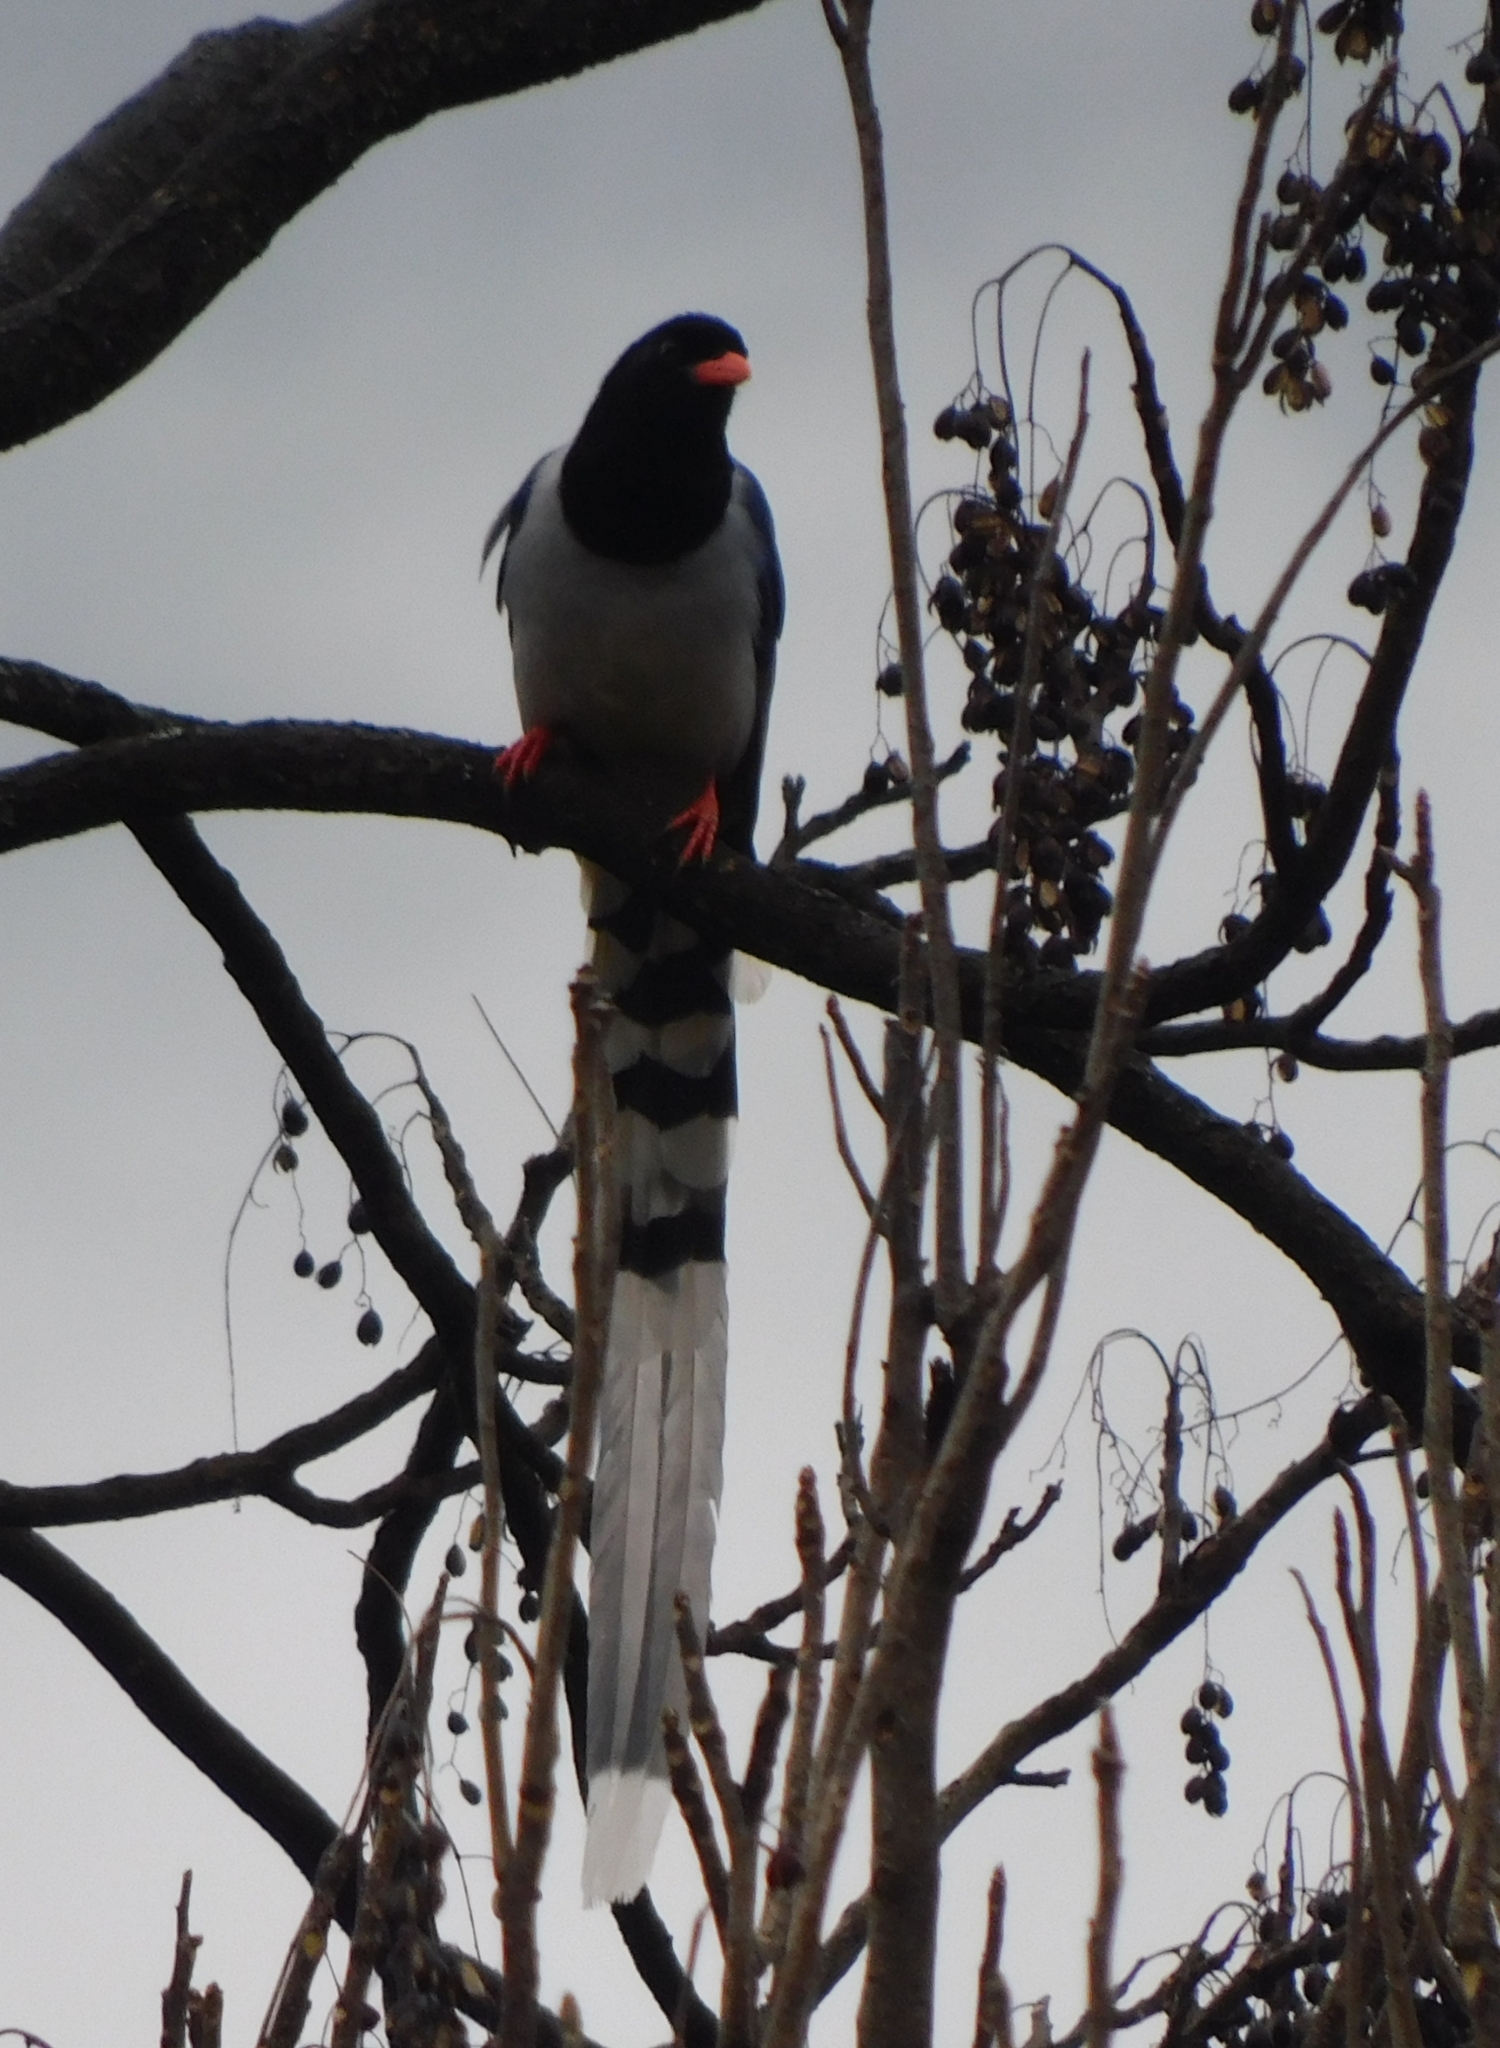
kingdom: Animalia
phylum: Chordata
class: Aves
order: Passeriformes
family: Corvidae
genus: Urocissa
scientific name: Urocissa erythroryncha
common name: Red-billed blue magpie
